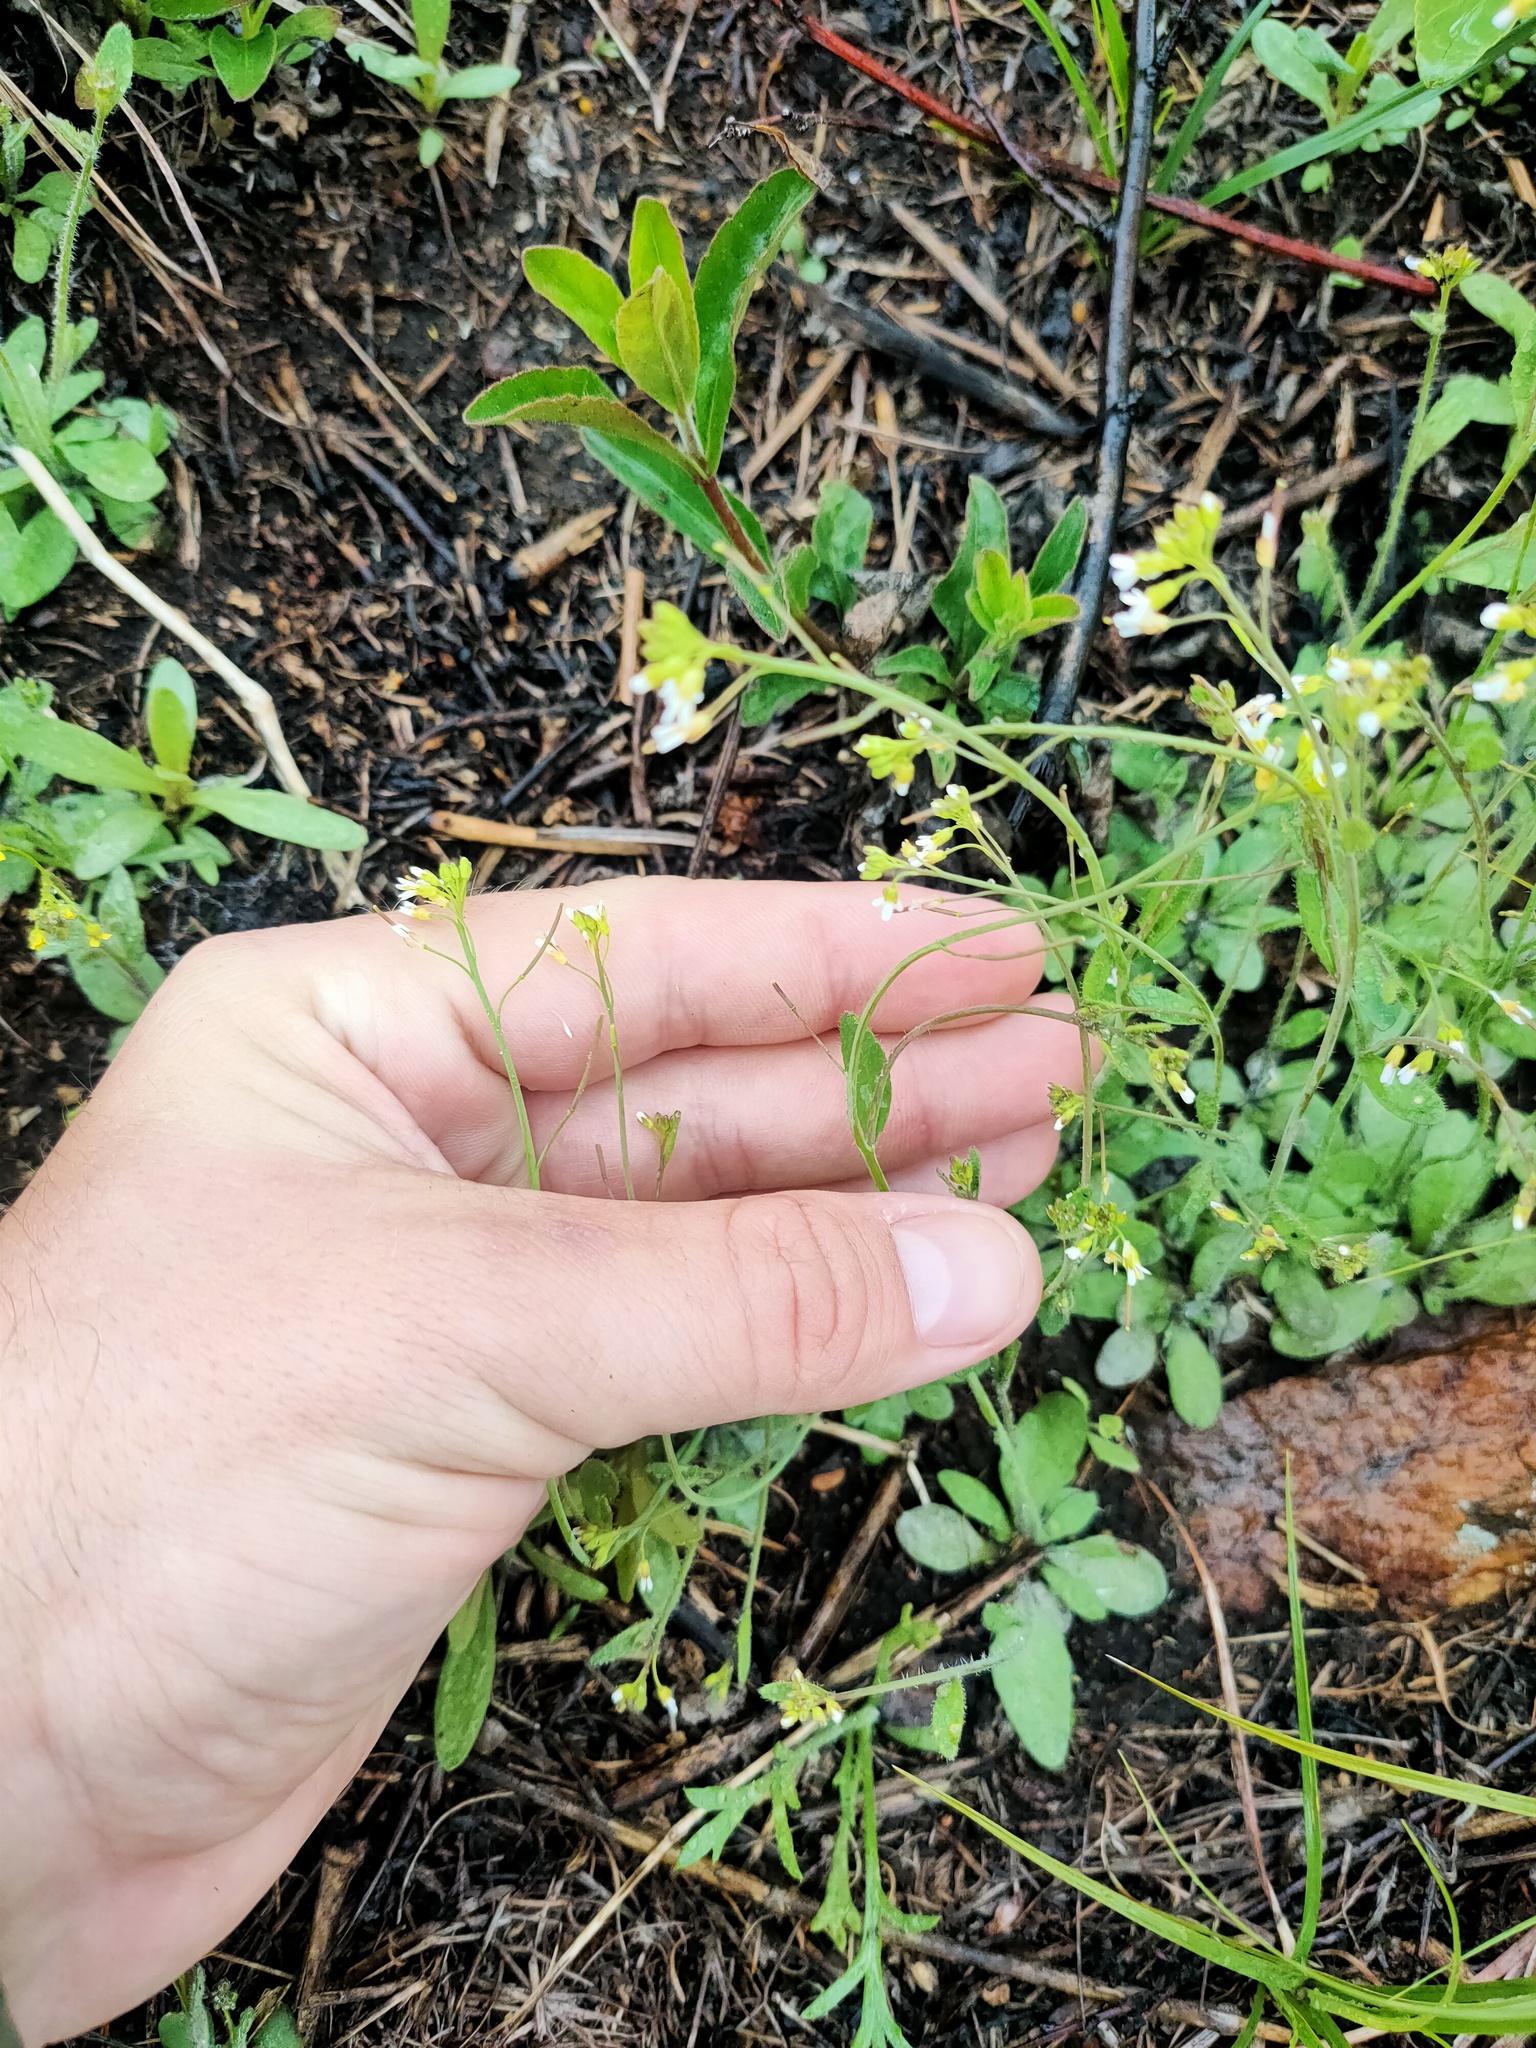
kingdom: Plantae
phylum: Tracheophyta
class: Magnoliopsida
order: Brassicales
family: Brassicaceae
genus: Arabidopsis
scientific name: Arabidopsis thaliana
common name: Thale cress
